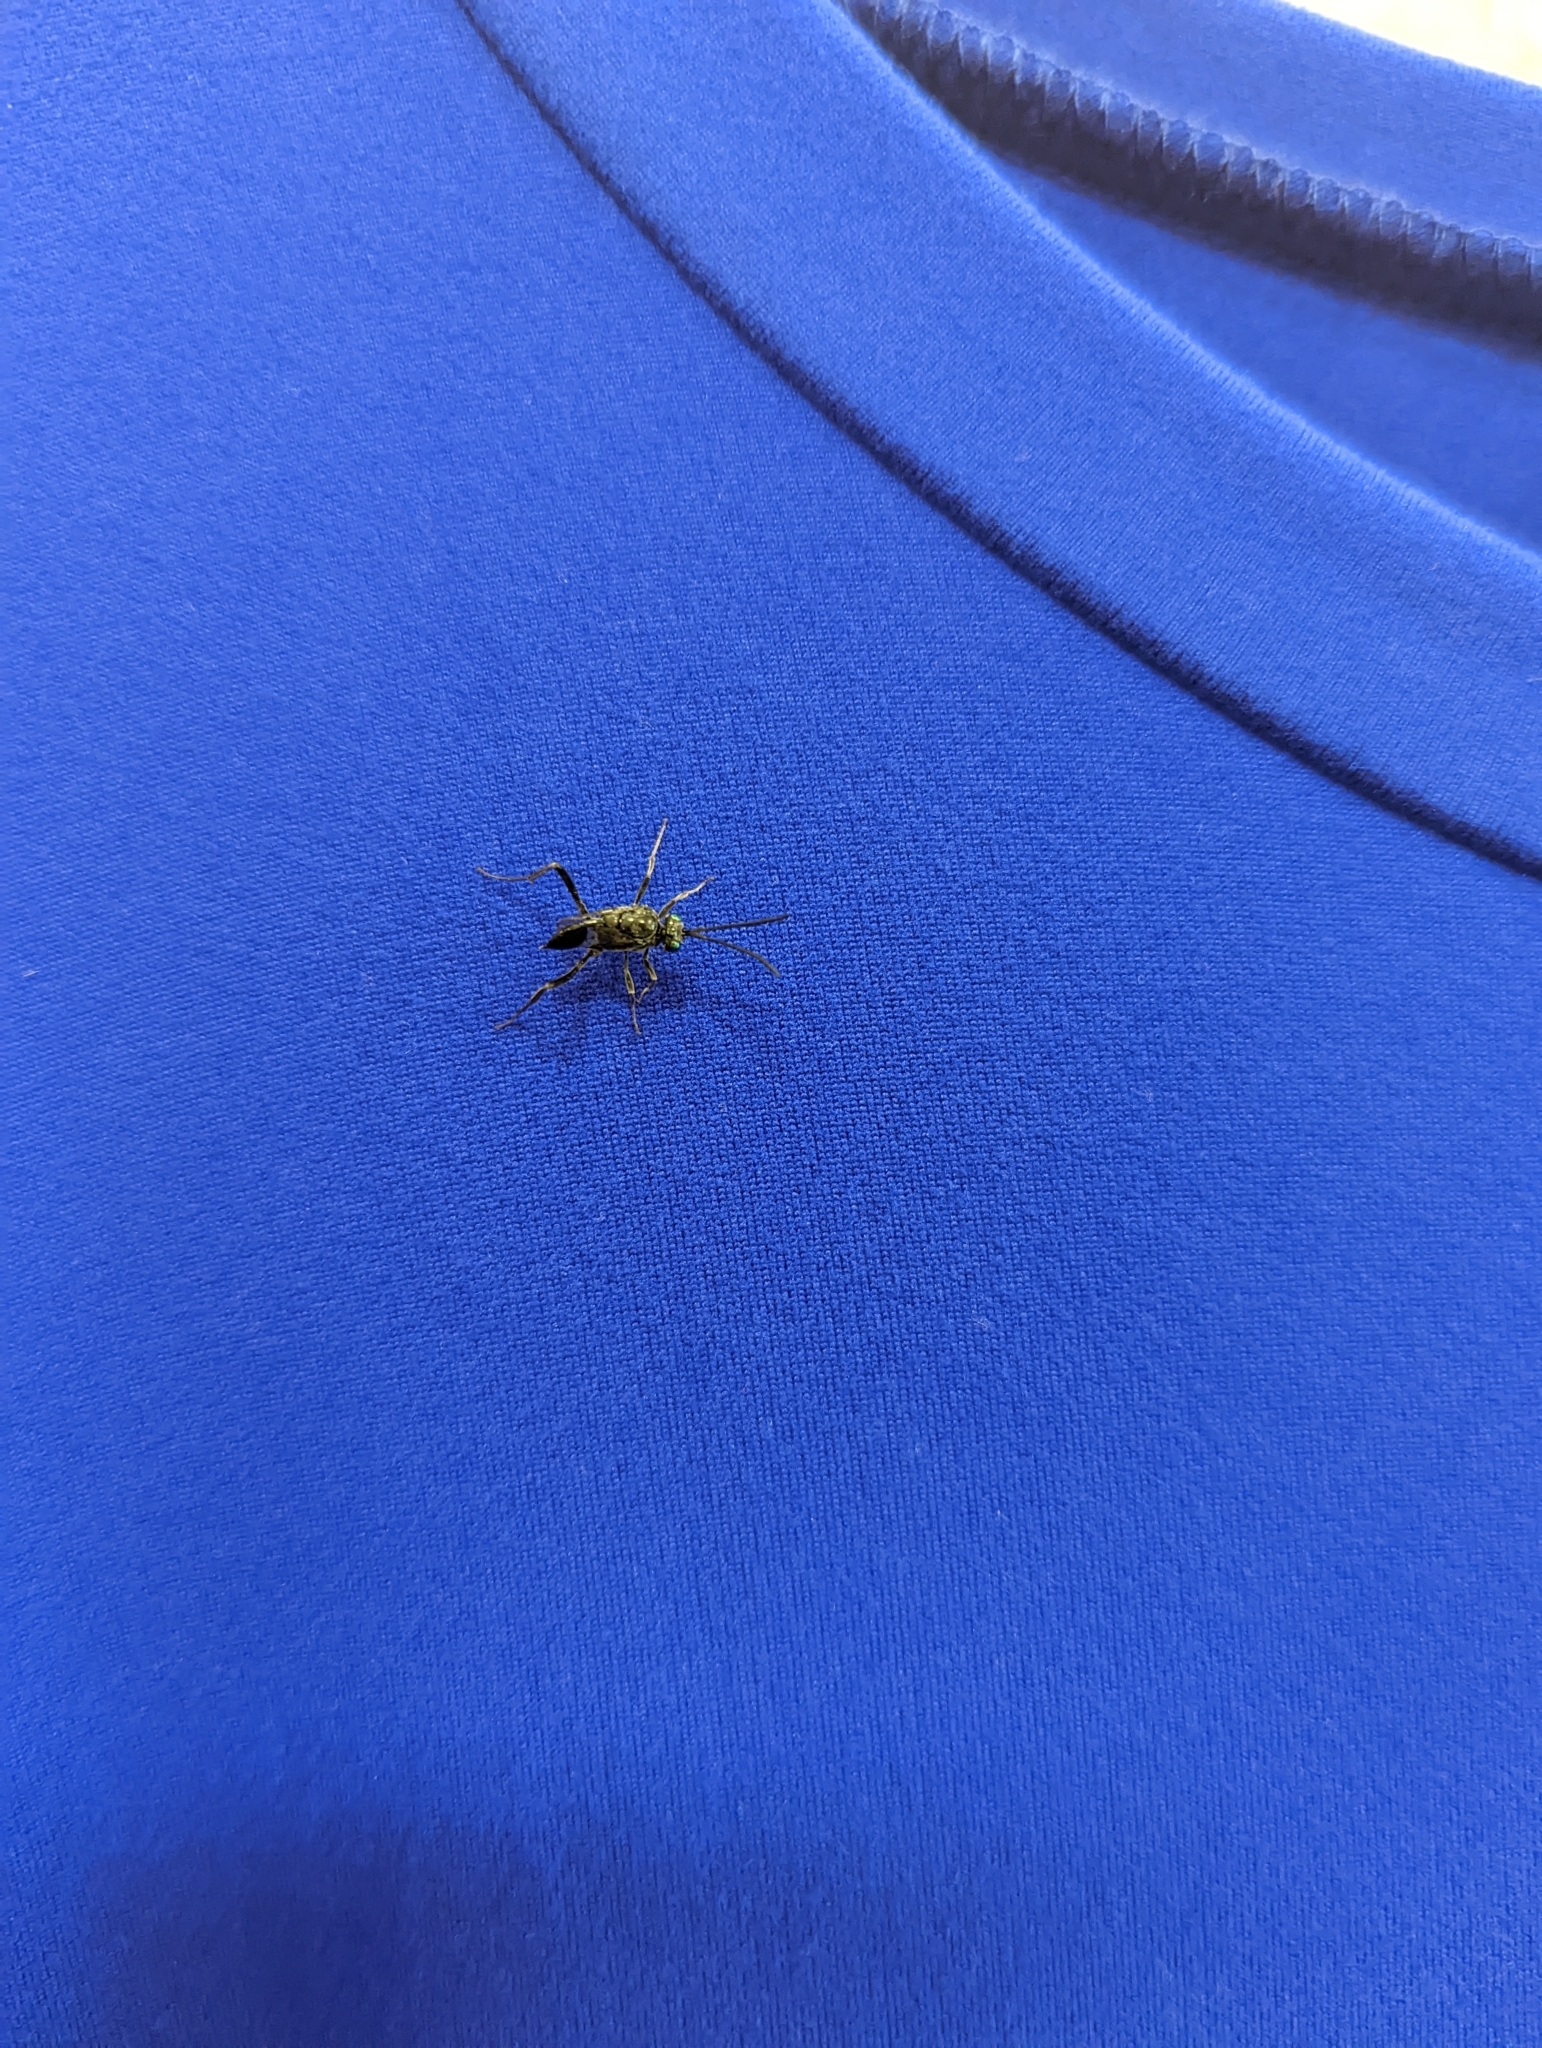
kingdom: Animalia
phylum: Arthropoda
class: Insecta
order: Hymenoptera
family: Evaniidae
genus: Evania
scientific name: Evania appendigaster
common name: Ensign wasp
